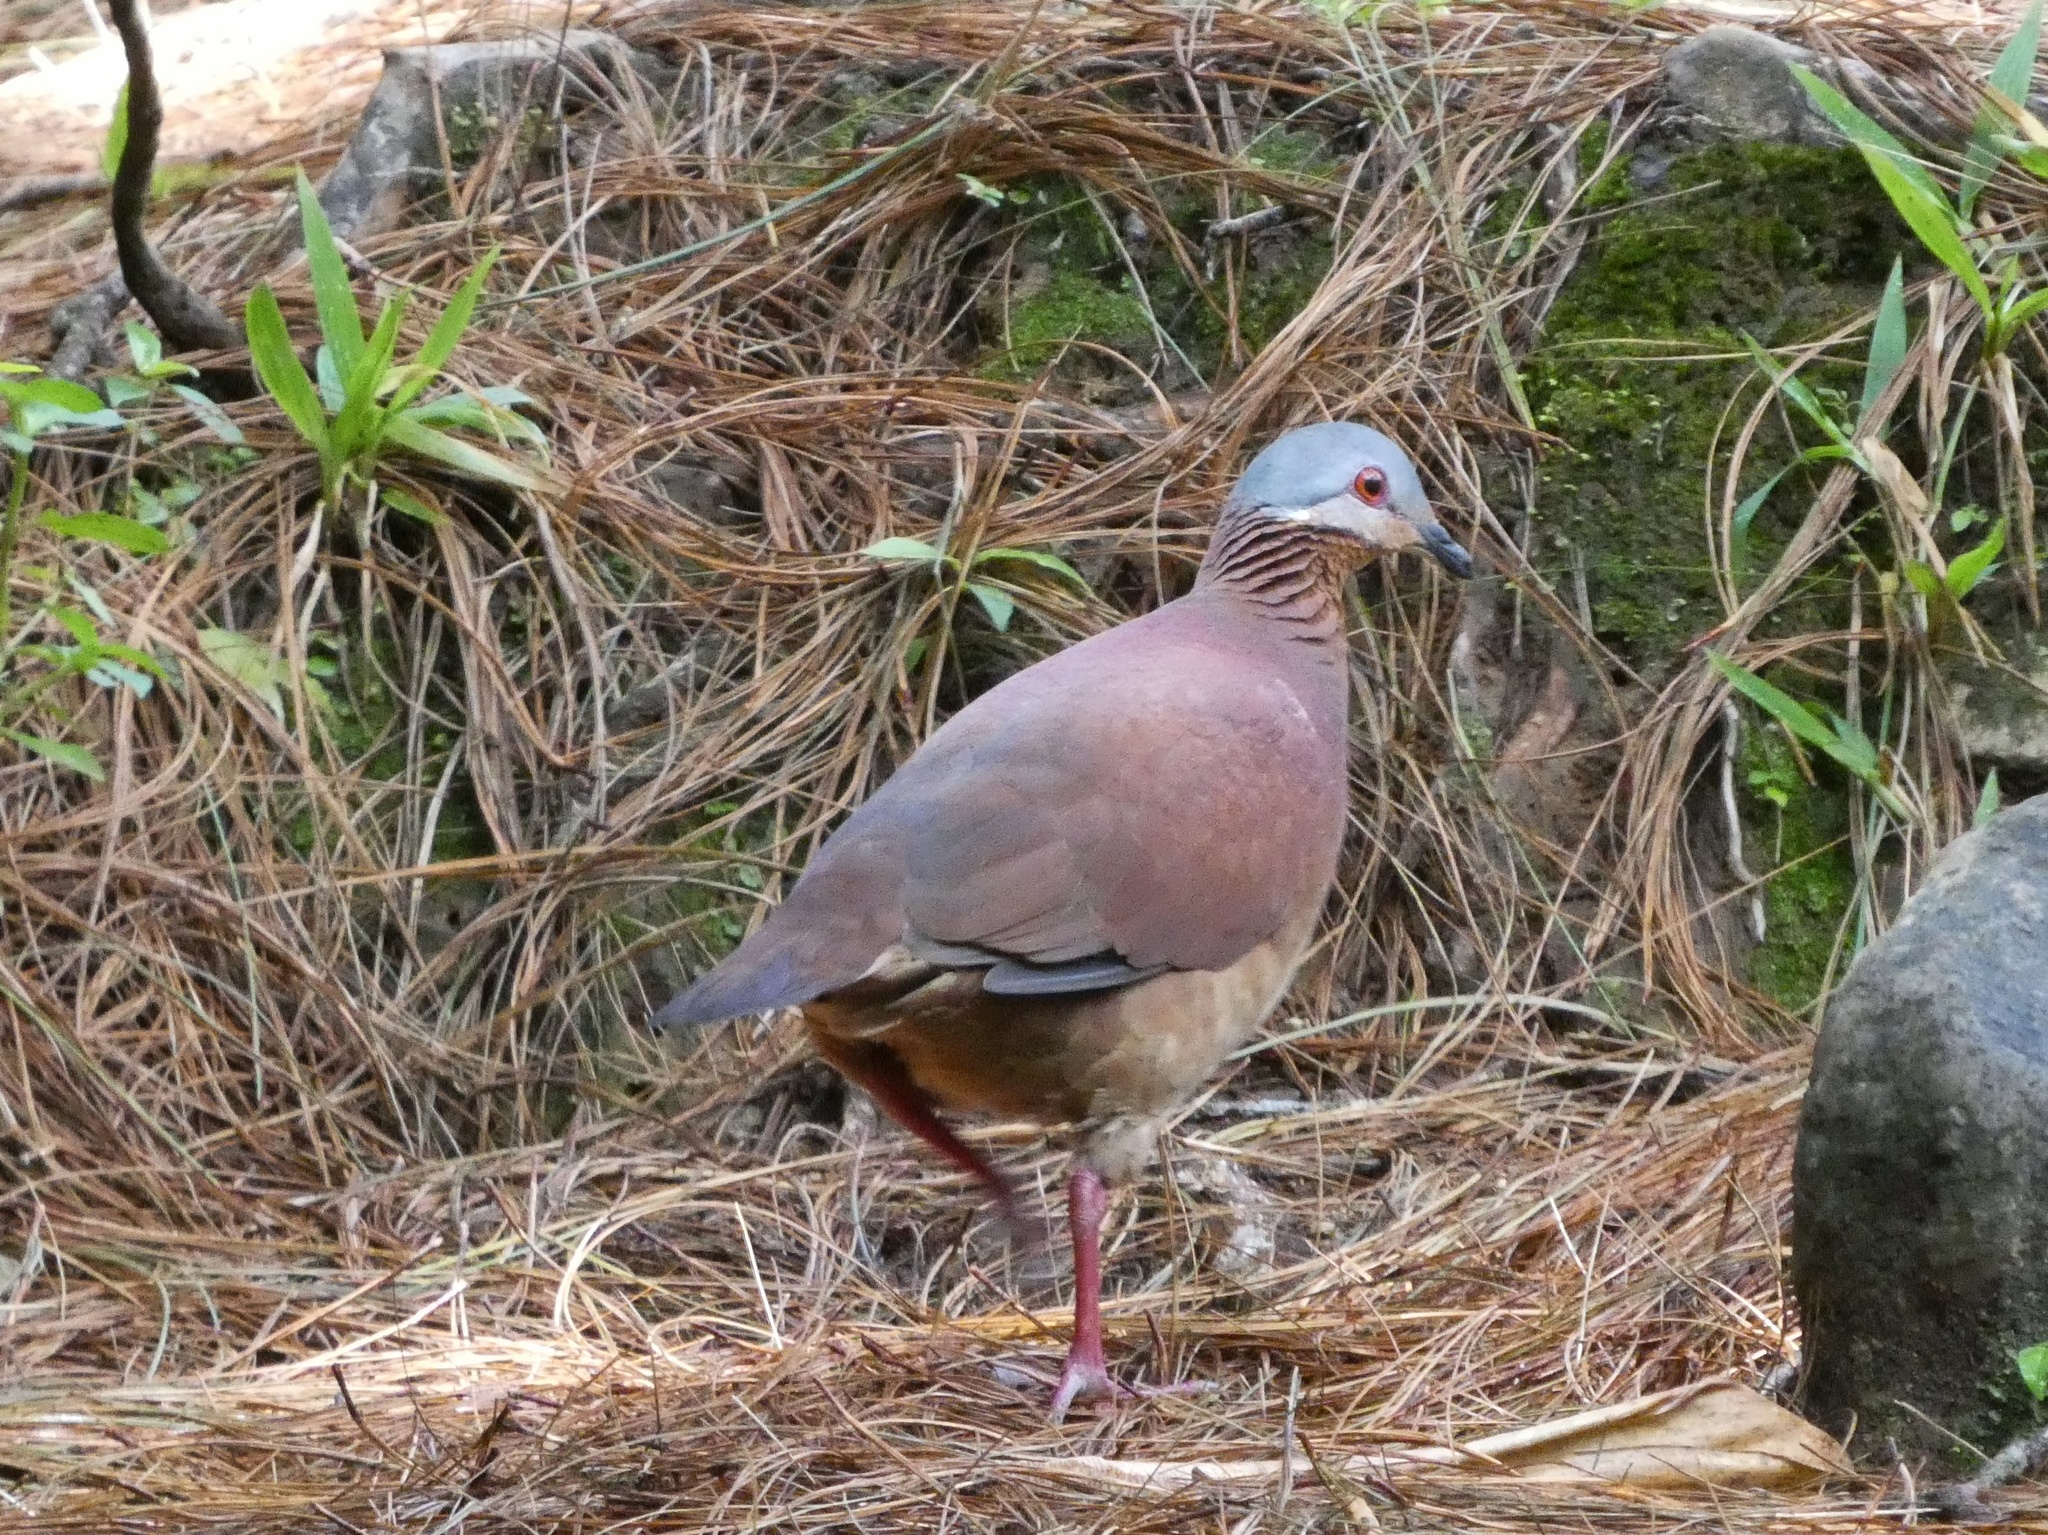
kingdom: Animalia
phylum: Chordata
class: Aves
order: Columbiformes
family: Columbidae
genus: Zentrygon
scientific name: Zentrygon chiriquensis
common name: Chiriqui quail-dove
